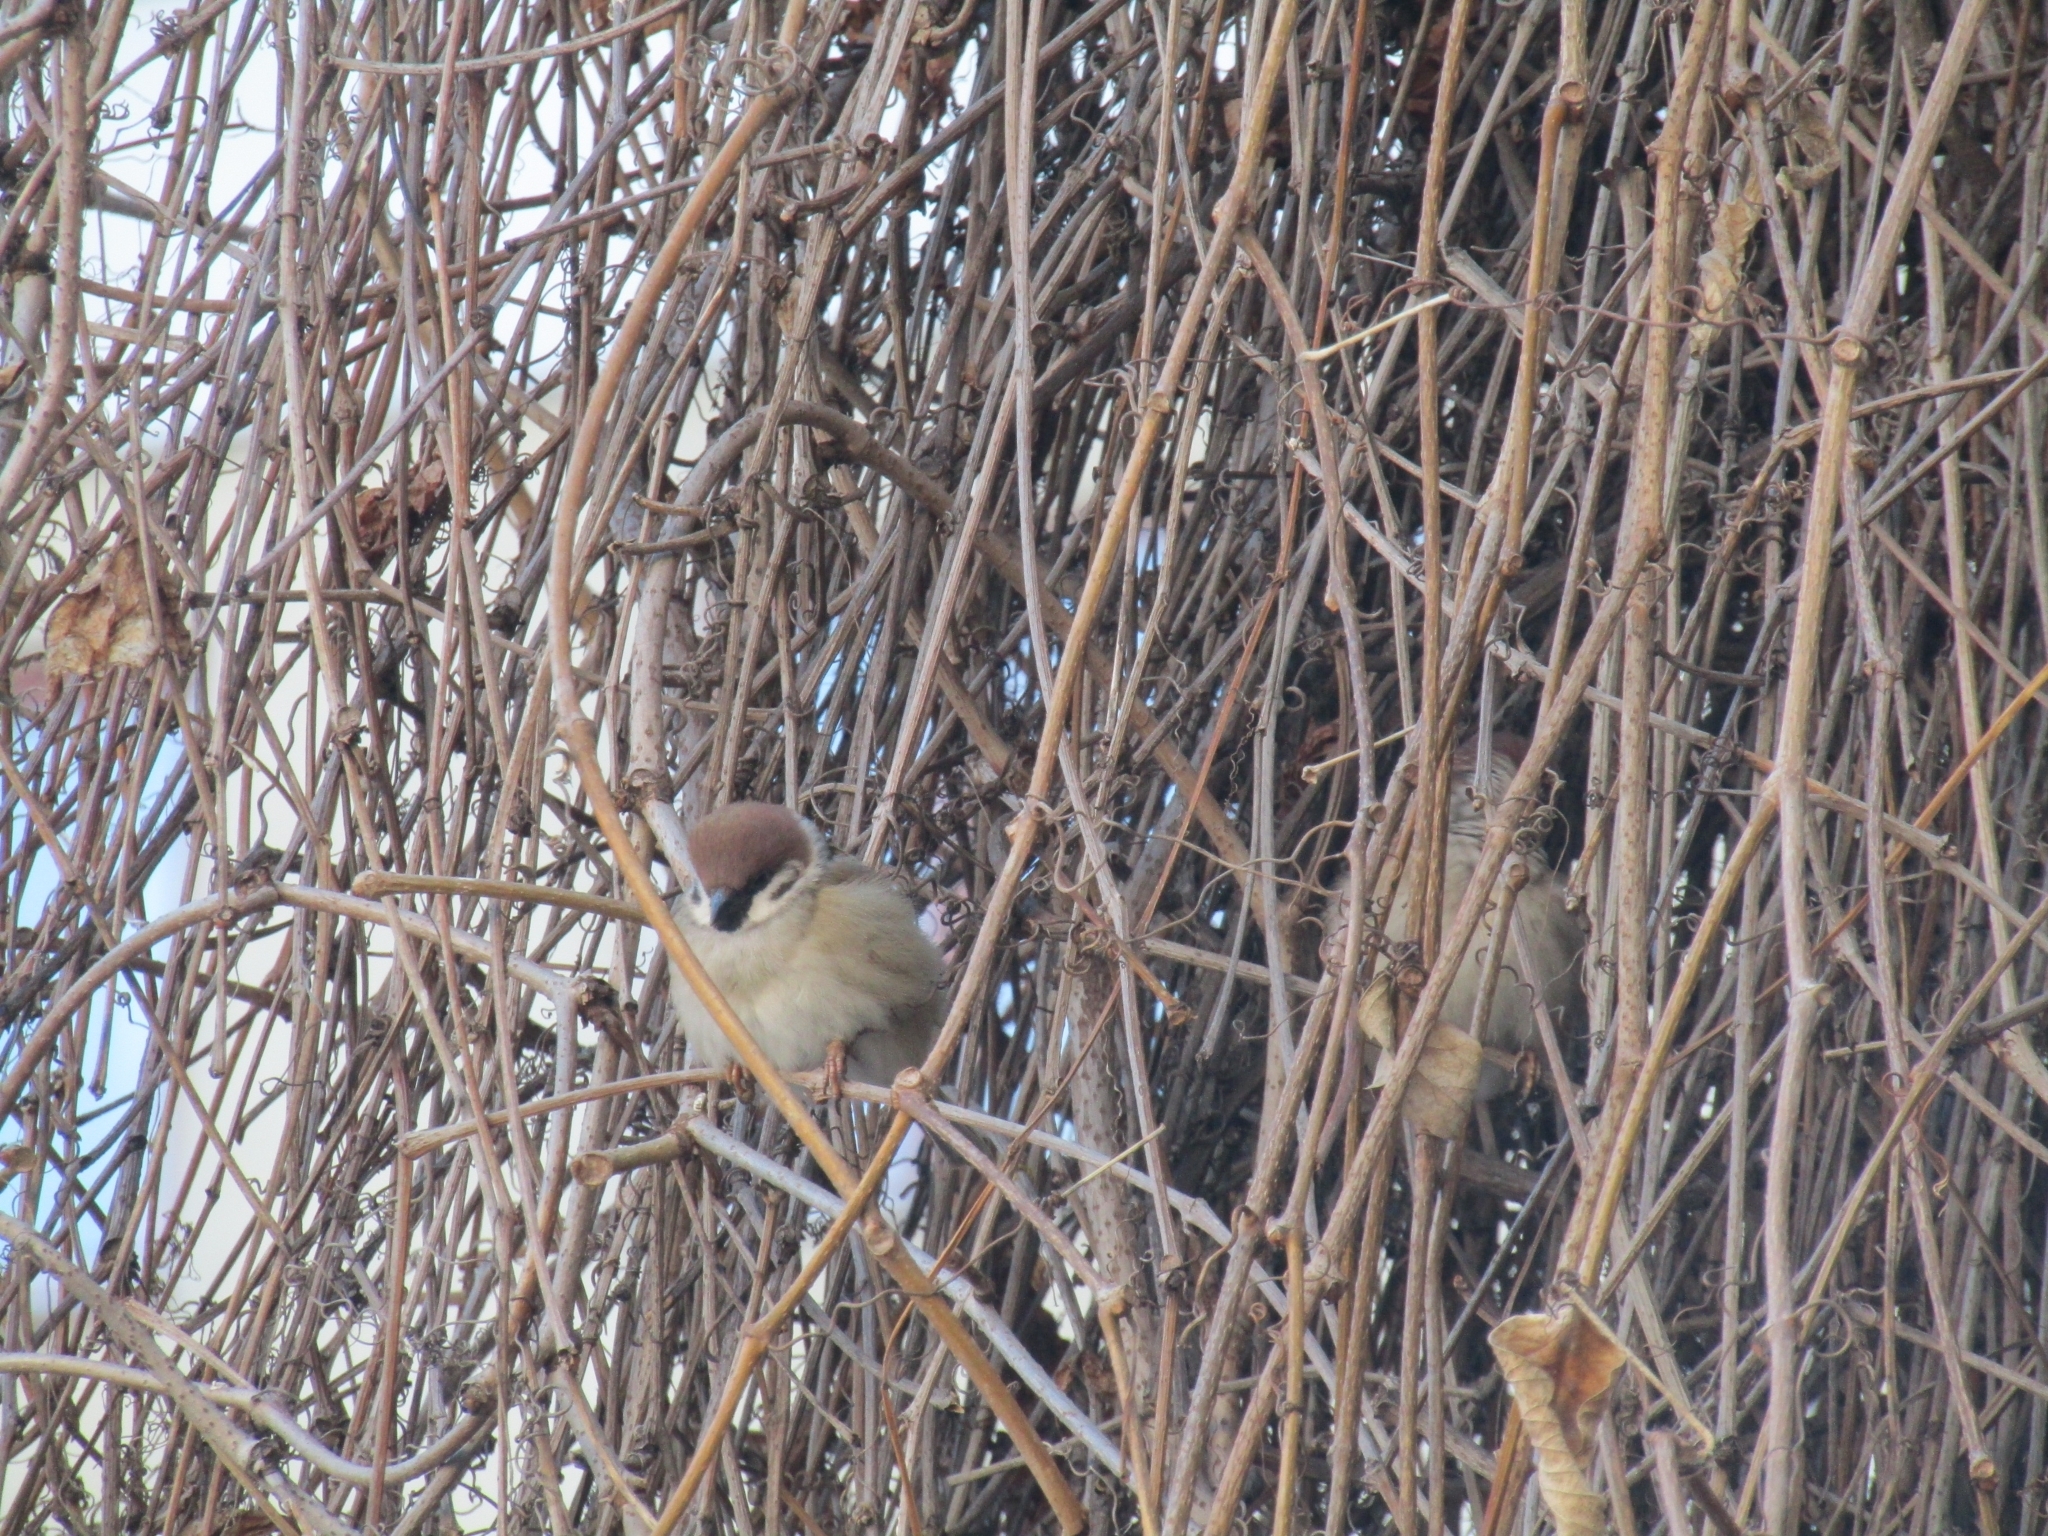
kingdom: Animalia
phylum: Chordata
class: Aves
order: Passeriformes
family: Passeridae
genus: Passer
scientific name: Passer montanus
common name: Eurasian tree sparrow
